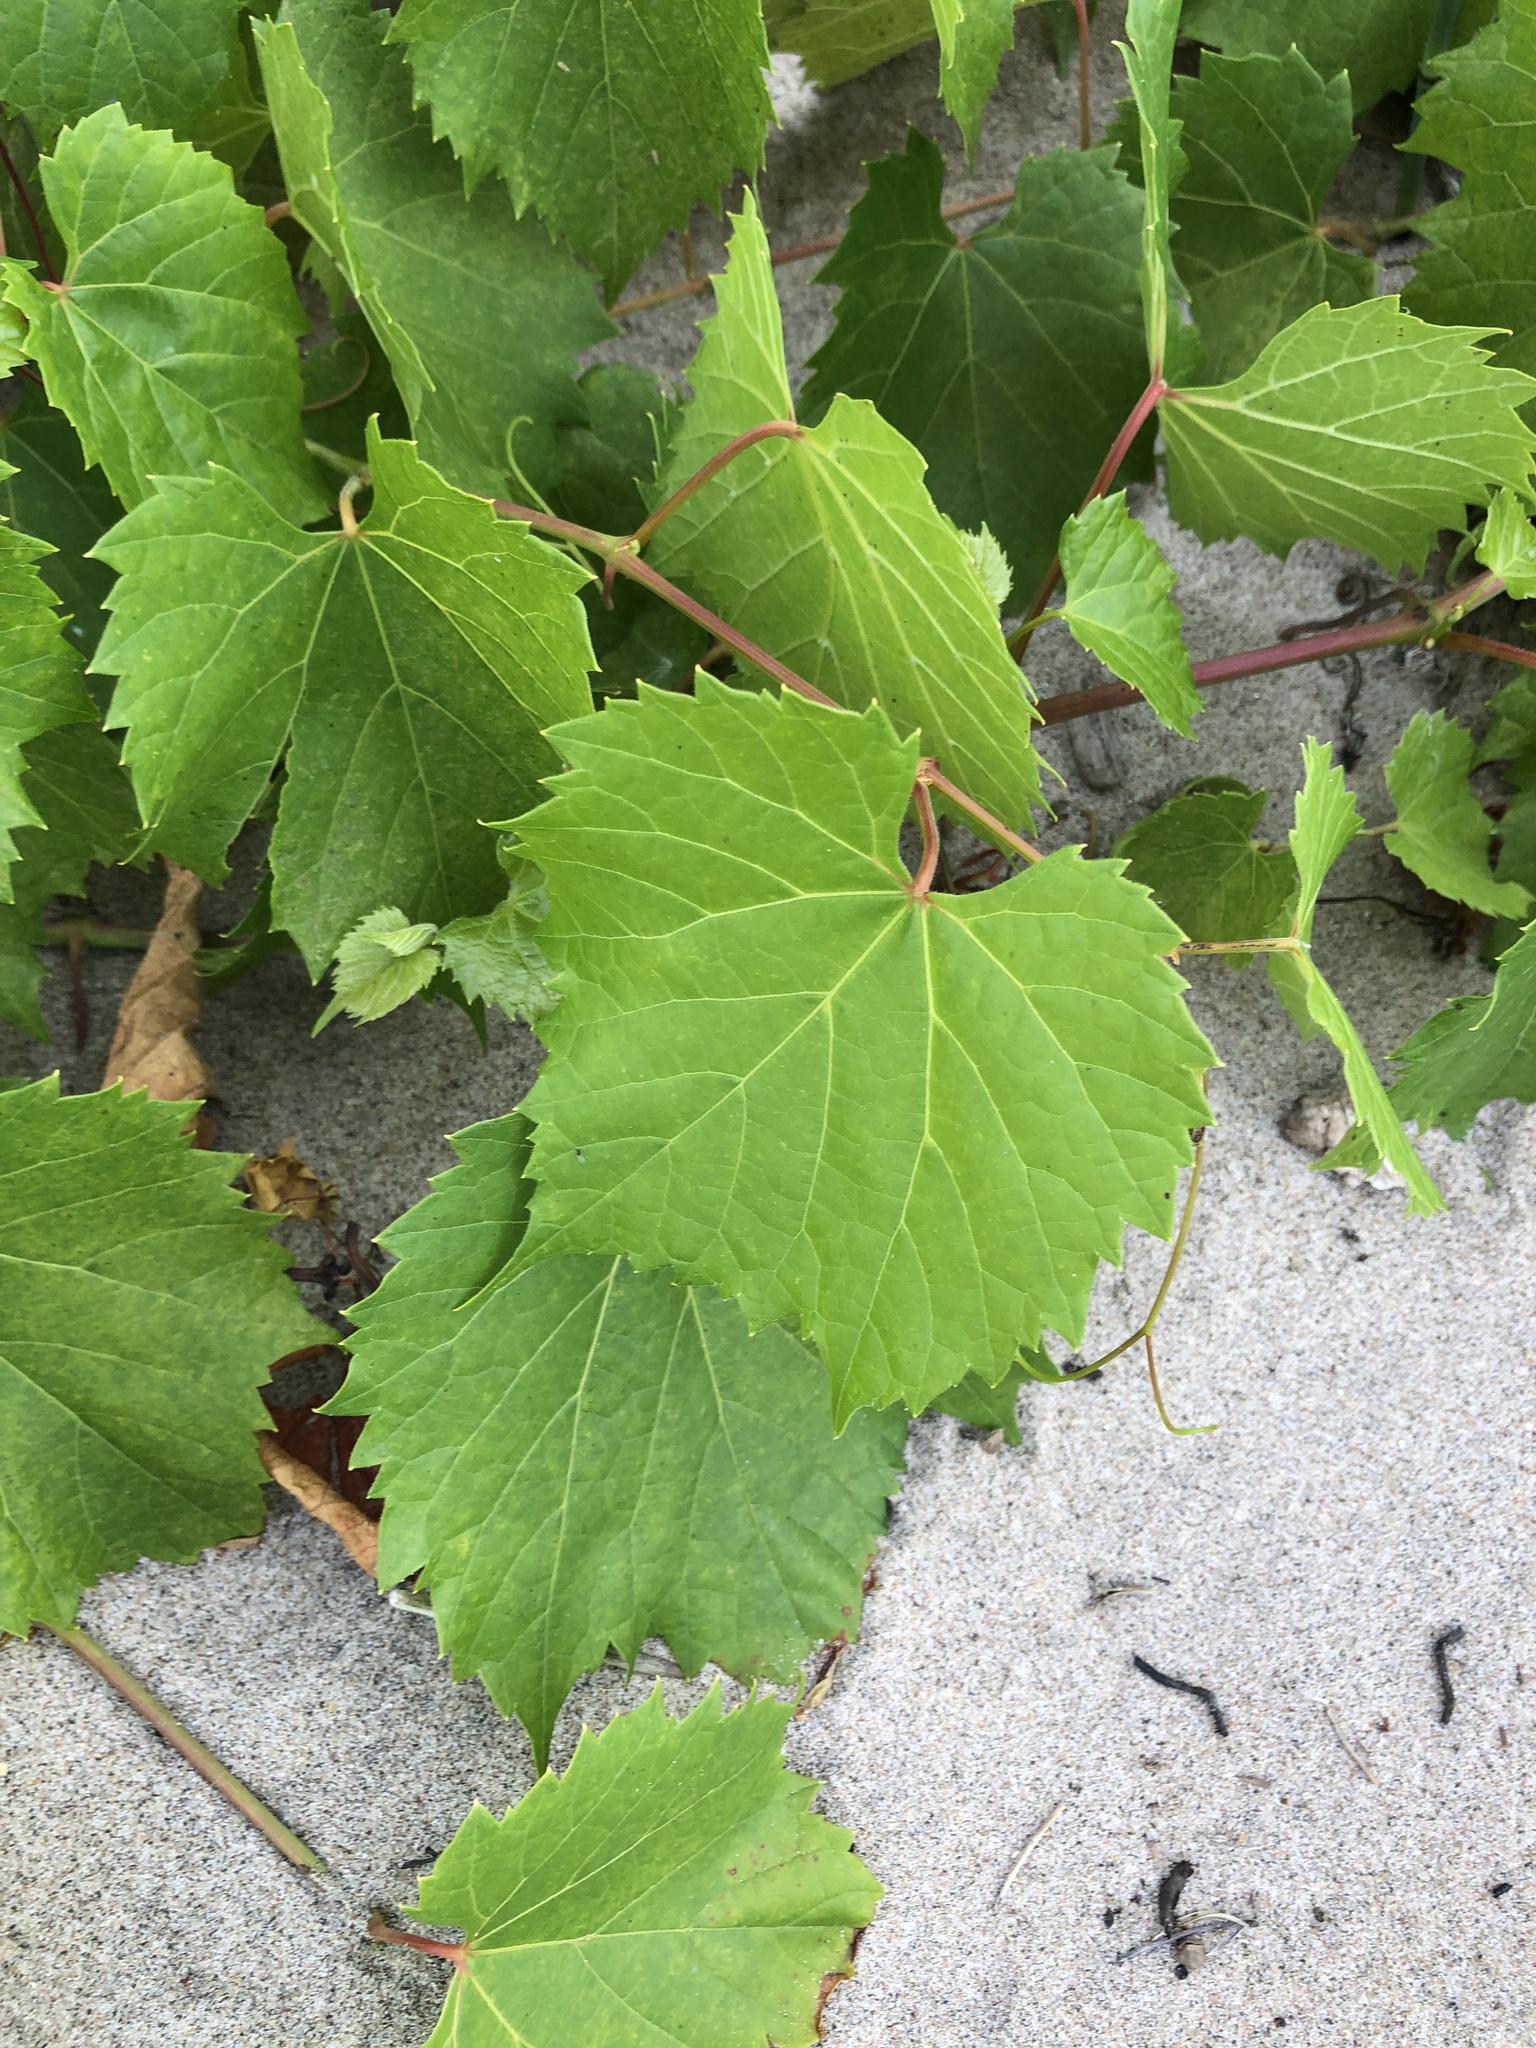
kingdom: Plantae
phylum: Tracheophyta
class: Magnoliopsida
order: Vitales
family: Vitaceae
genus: Vitis
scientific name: Vitis riparia
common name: Frost grape
